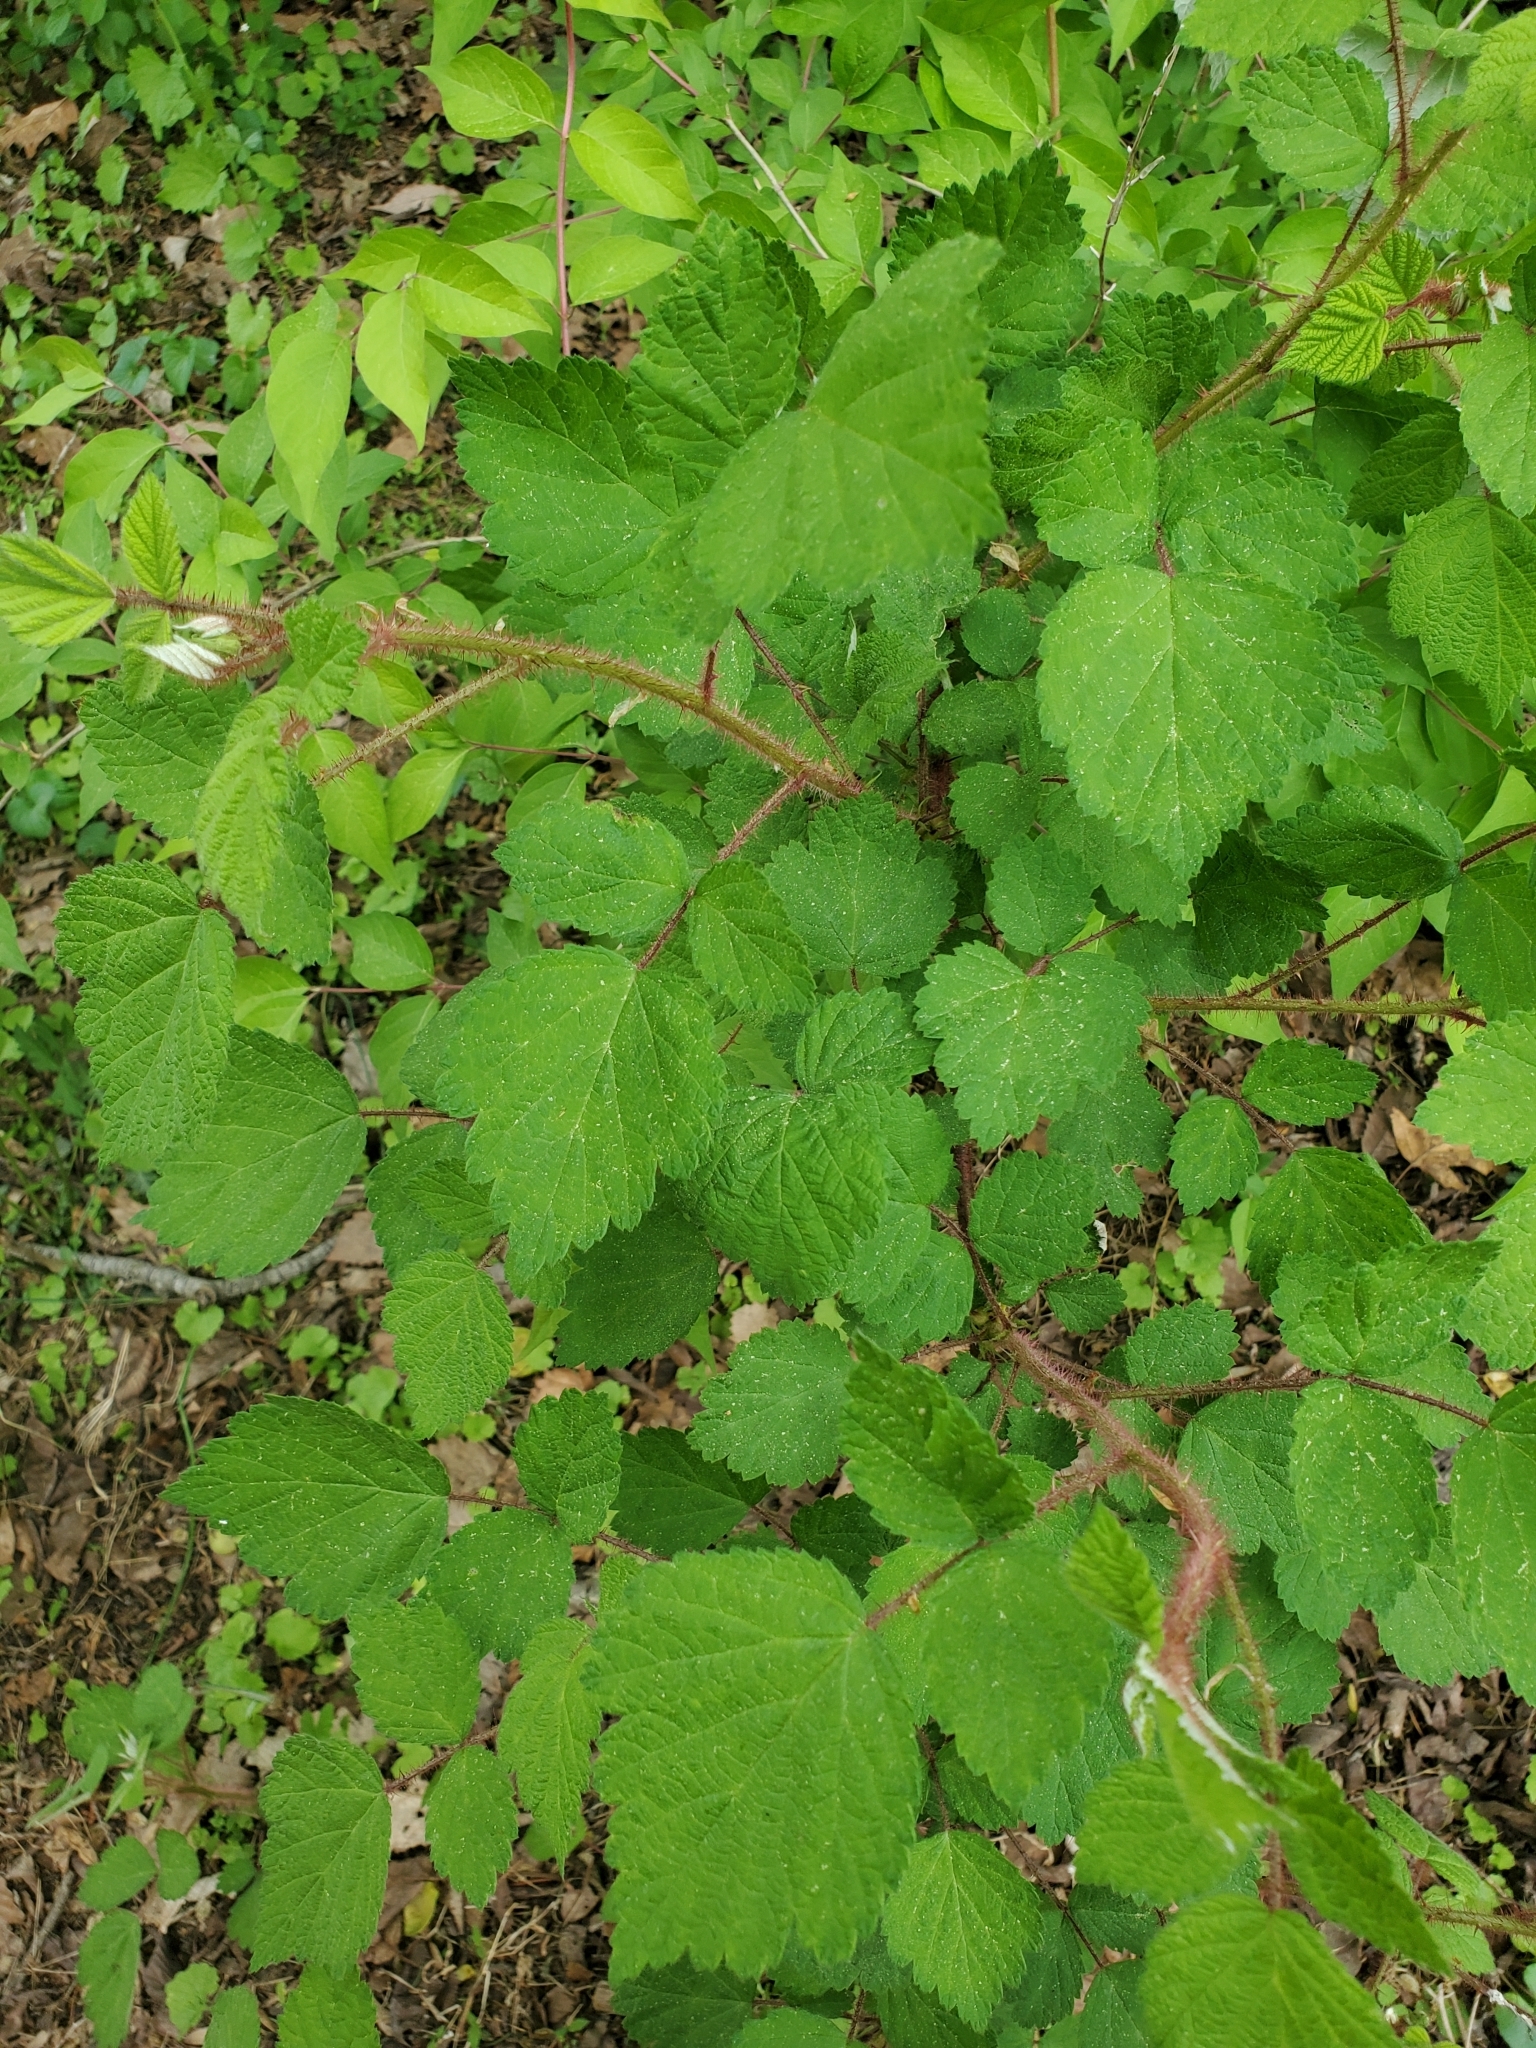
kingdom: Plantae
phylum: Tracheophyta
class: Magnoliopsida
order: Rosales
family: Rosaceae
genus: Rubus
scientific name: Rubus phoenicolasius
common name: Japanese wineberry
